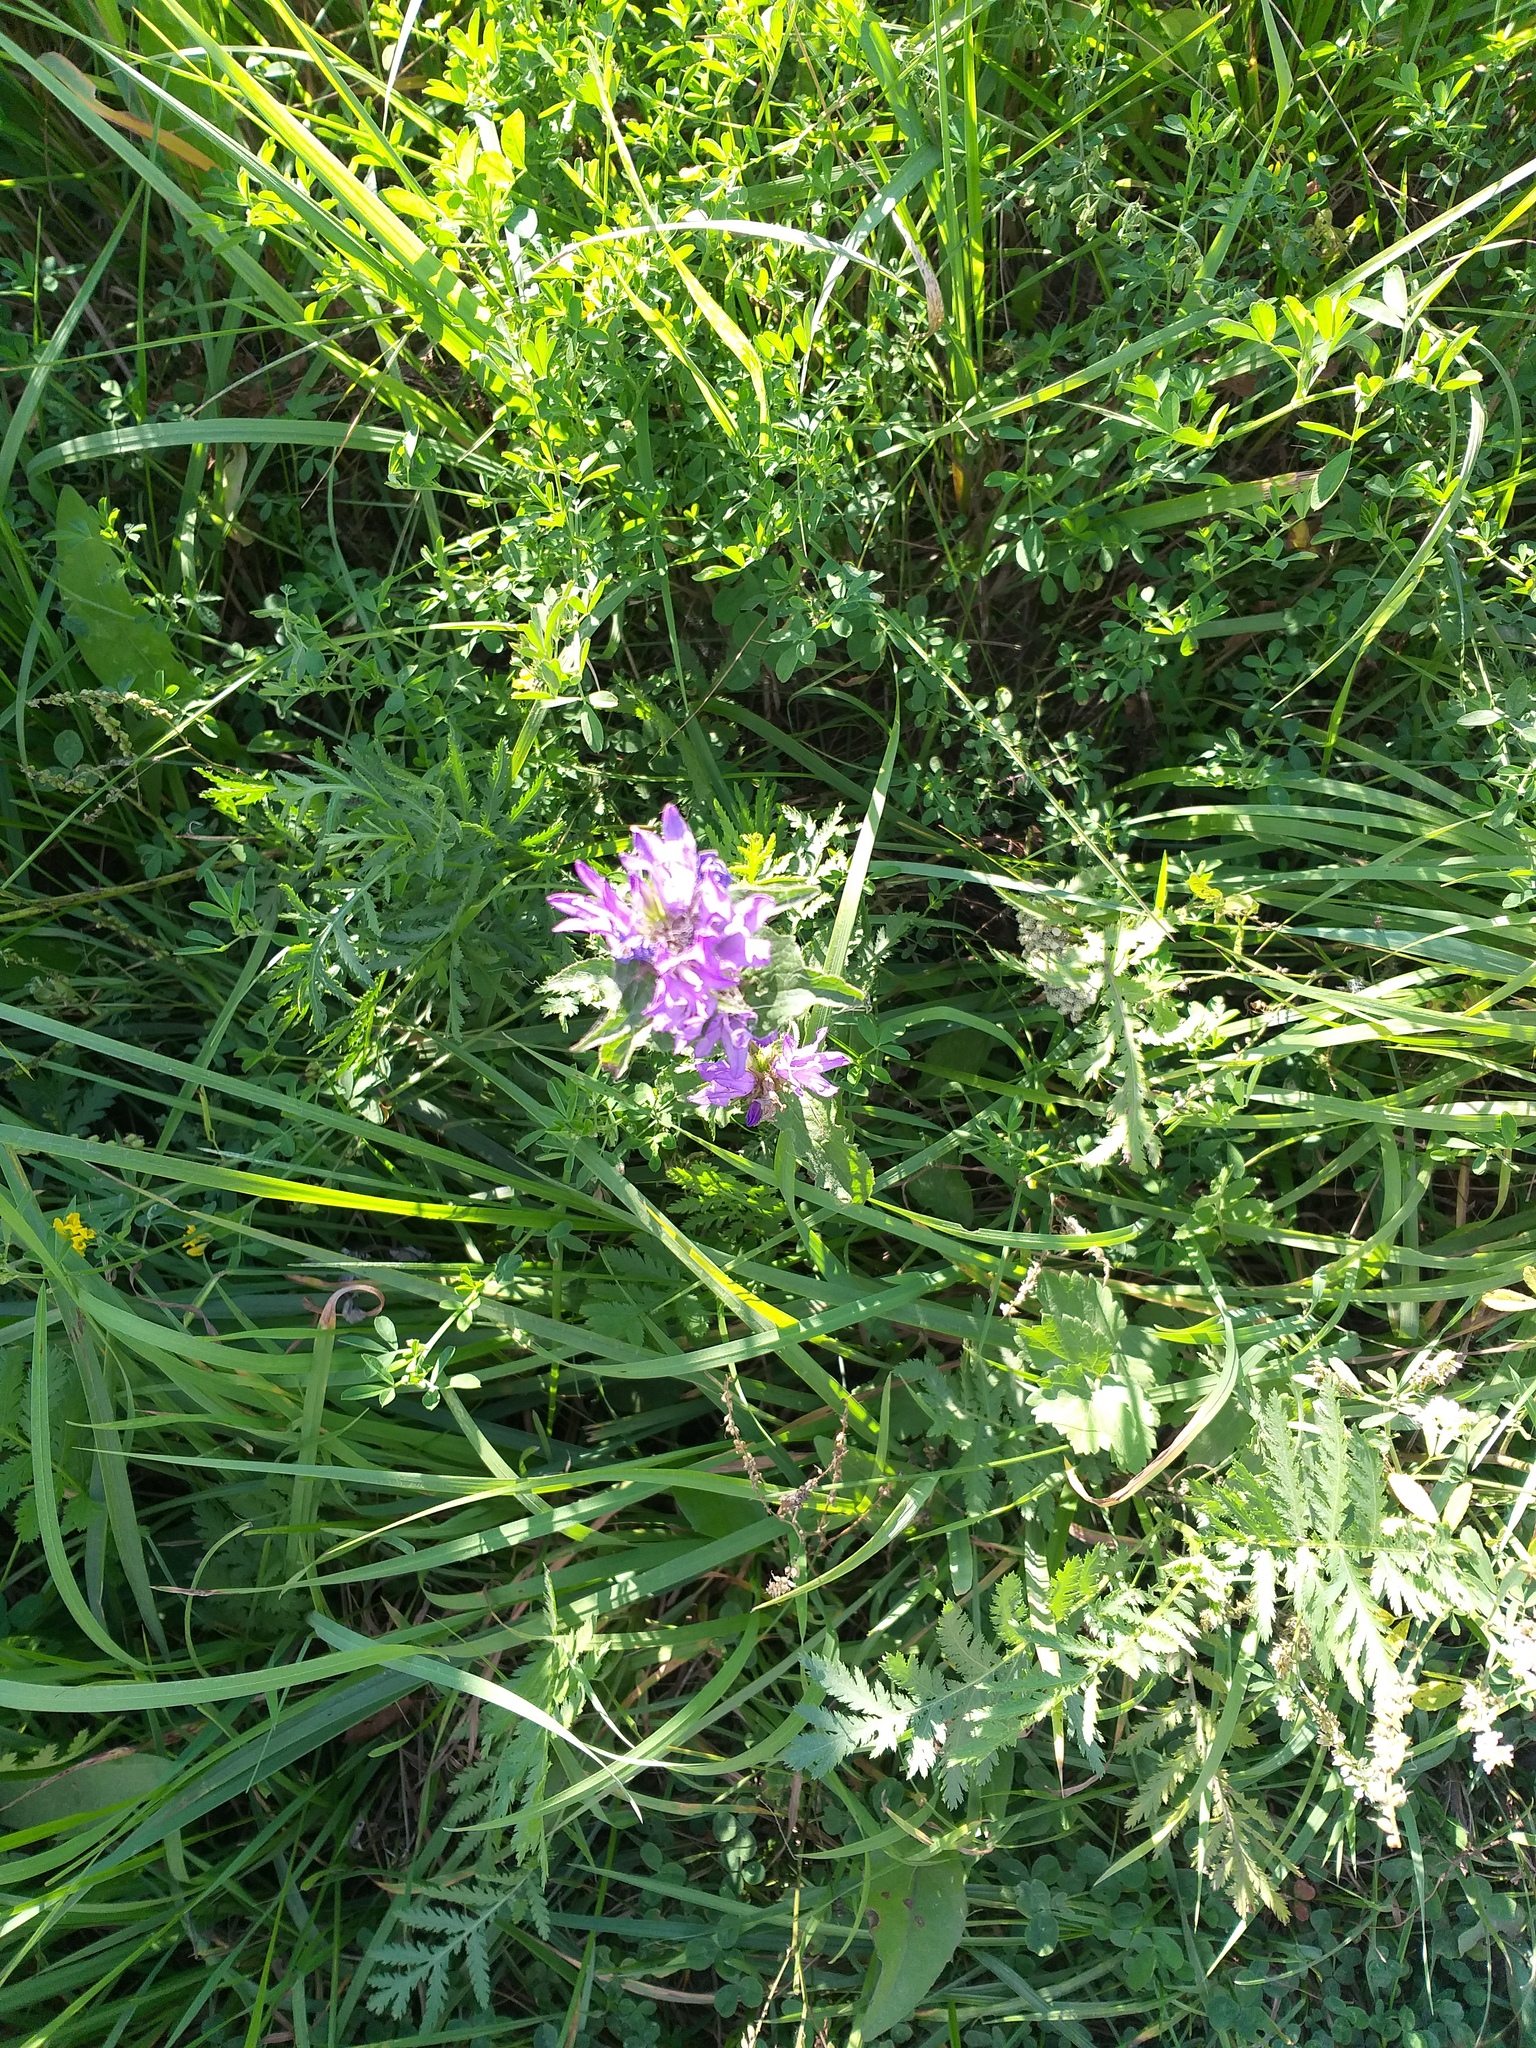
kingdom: Plantae
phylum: Tracheophyta
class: Magnoliopsida
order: Asterales
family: Campanulaceae
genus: Campanula
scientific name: Campanula glomerata
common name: Clustered bellflower
